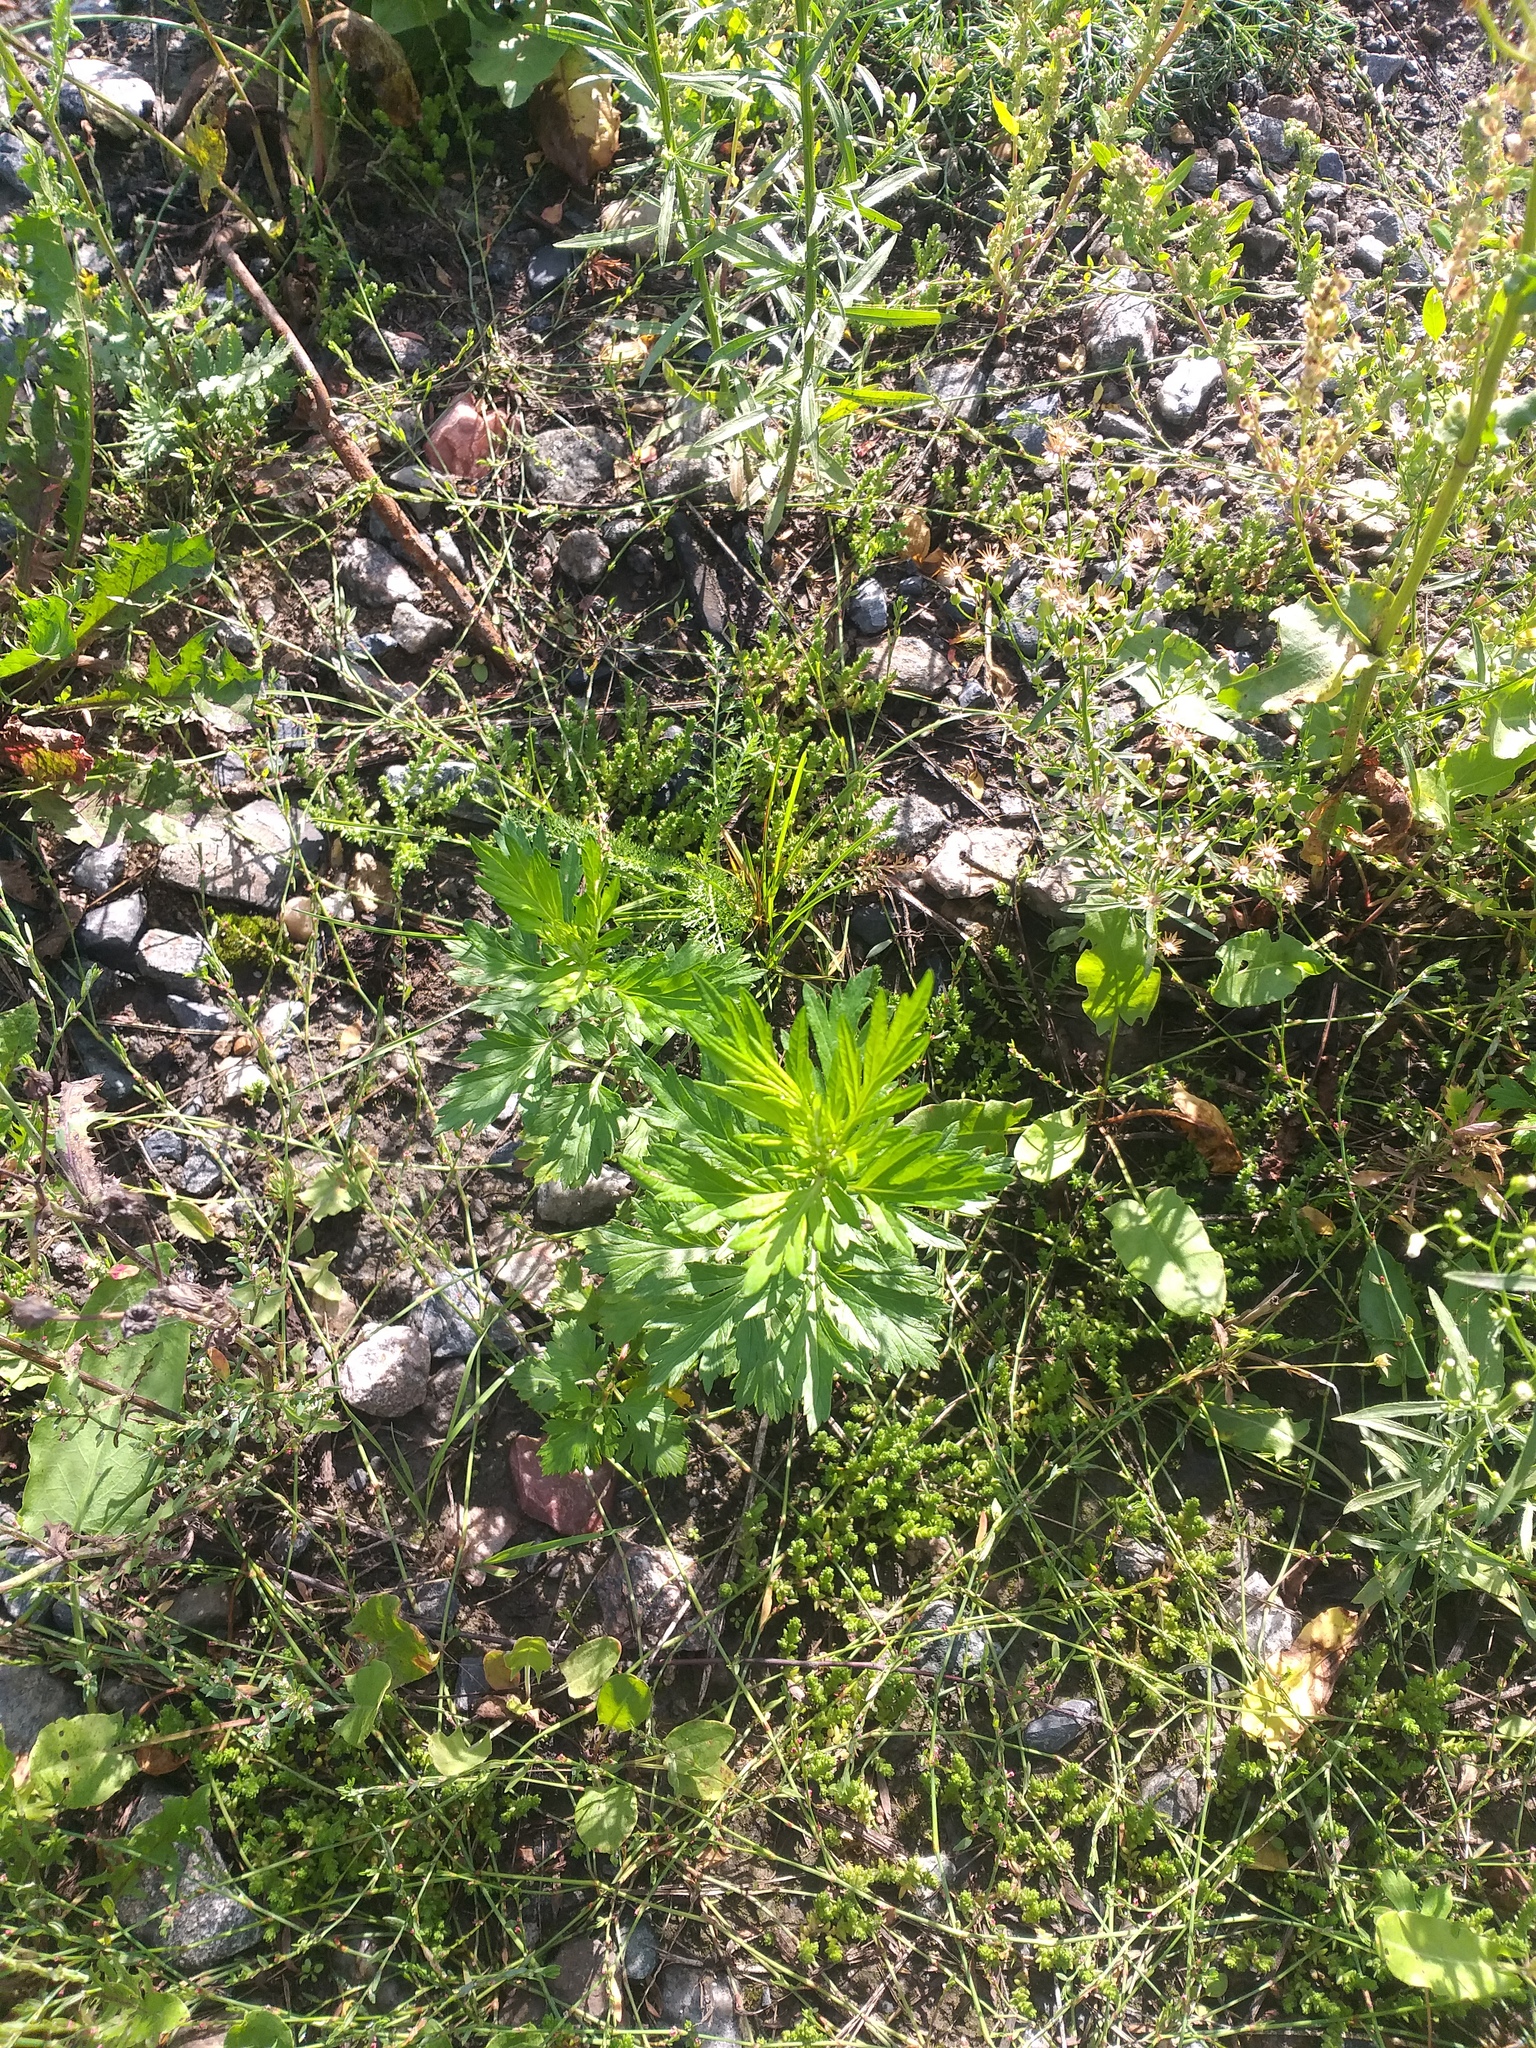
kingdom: Plantae
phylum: Tracheophyta
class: Magnoliopsida
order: Asterales
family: Asteraceae
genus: Artemisia
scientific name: Artemisia vulgaris
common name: Mugwort
